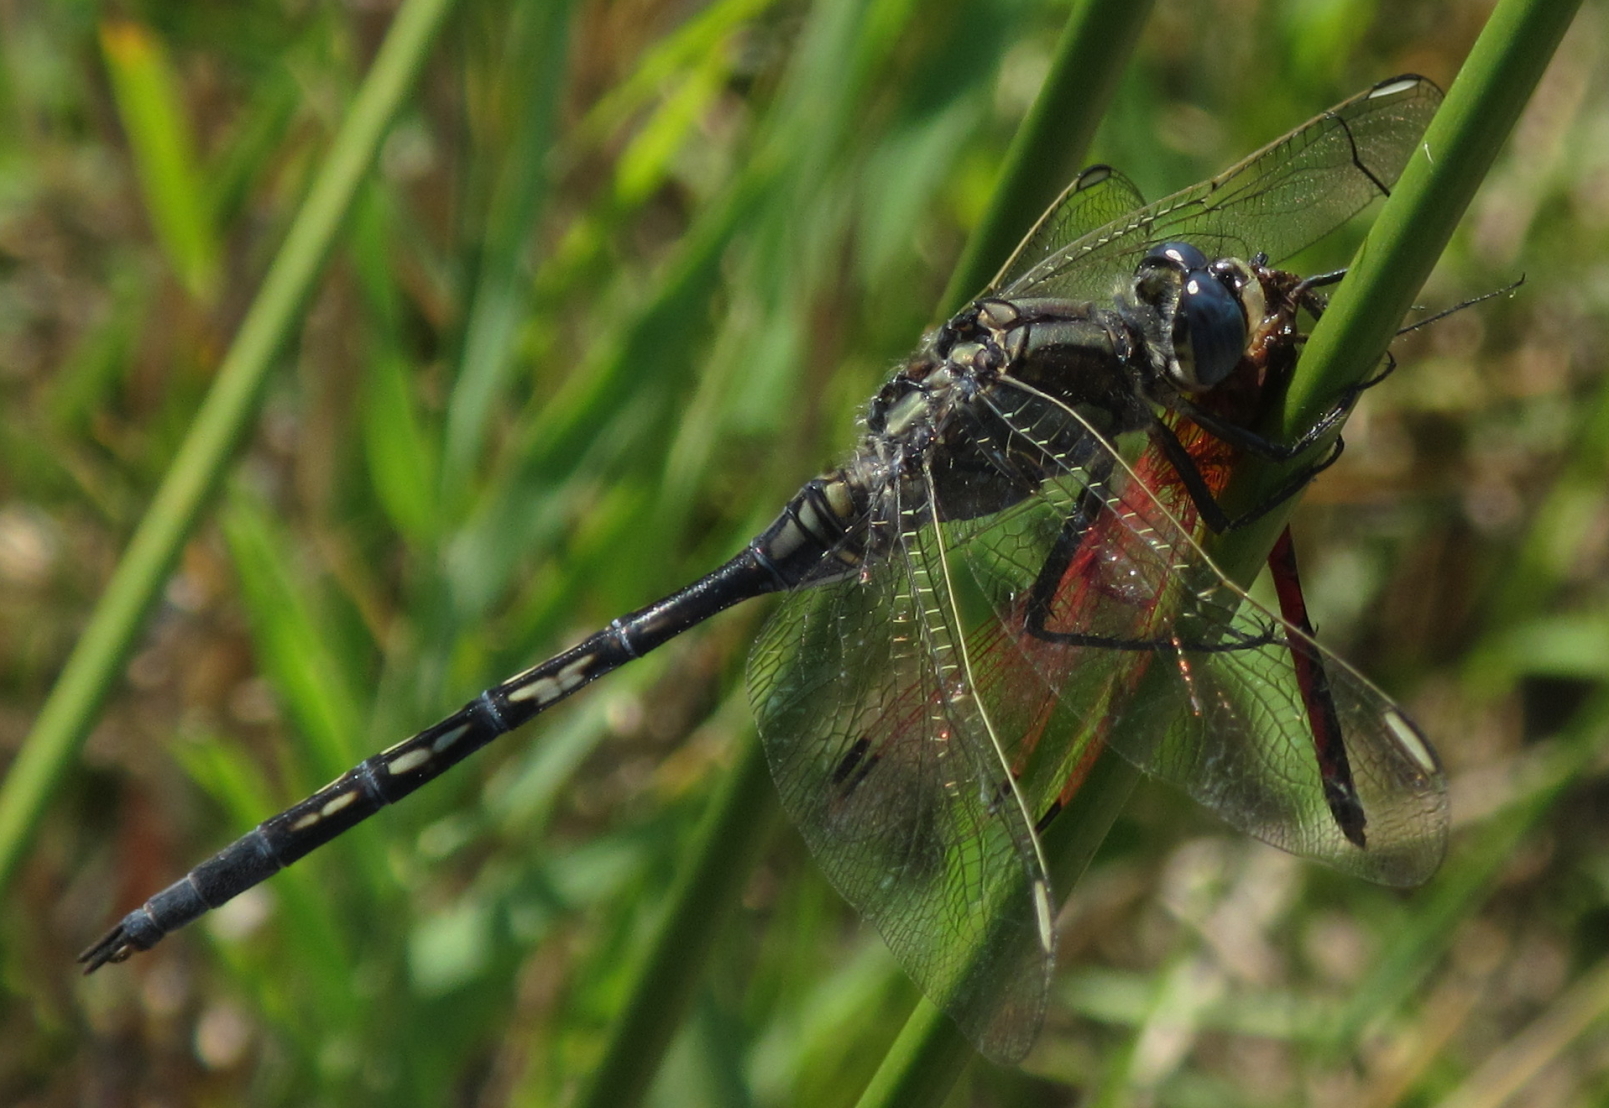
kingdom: Animalia
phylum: Arthropoda
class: Insecta
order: Odonata
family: Libellulidae
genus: Orthetrum
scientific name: Orthetrum trinacria
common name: Long skimmer
